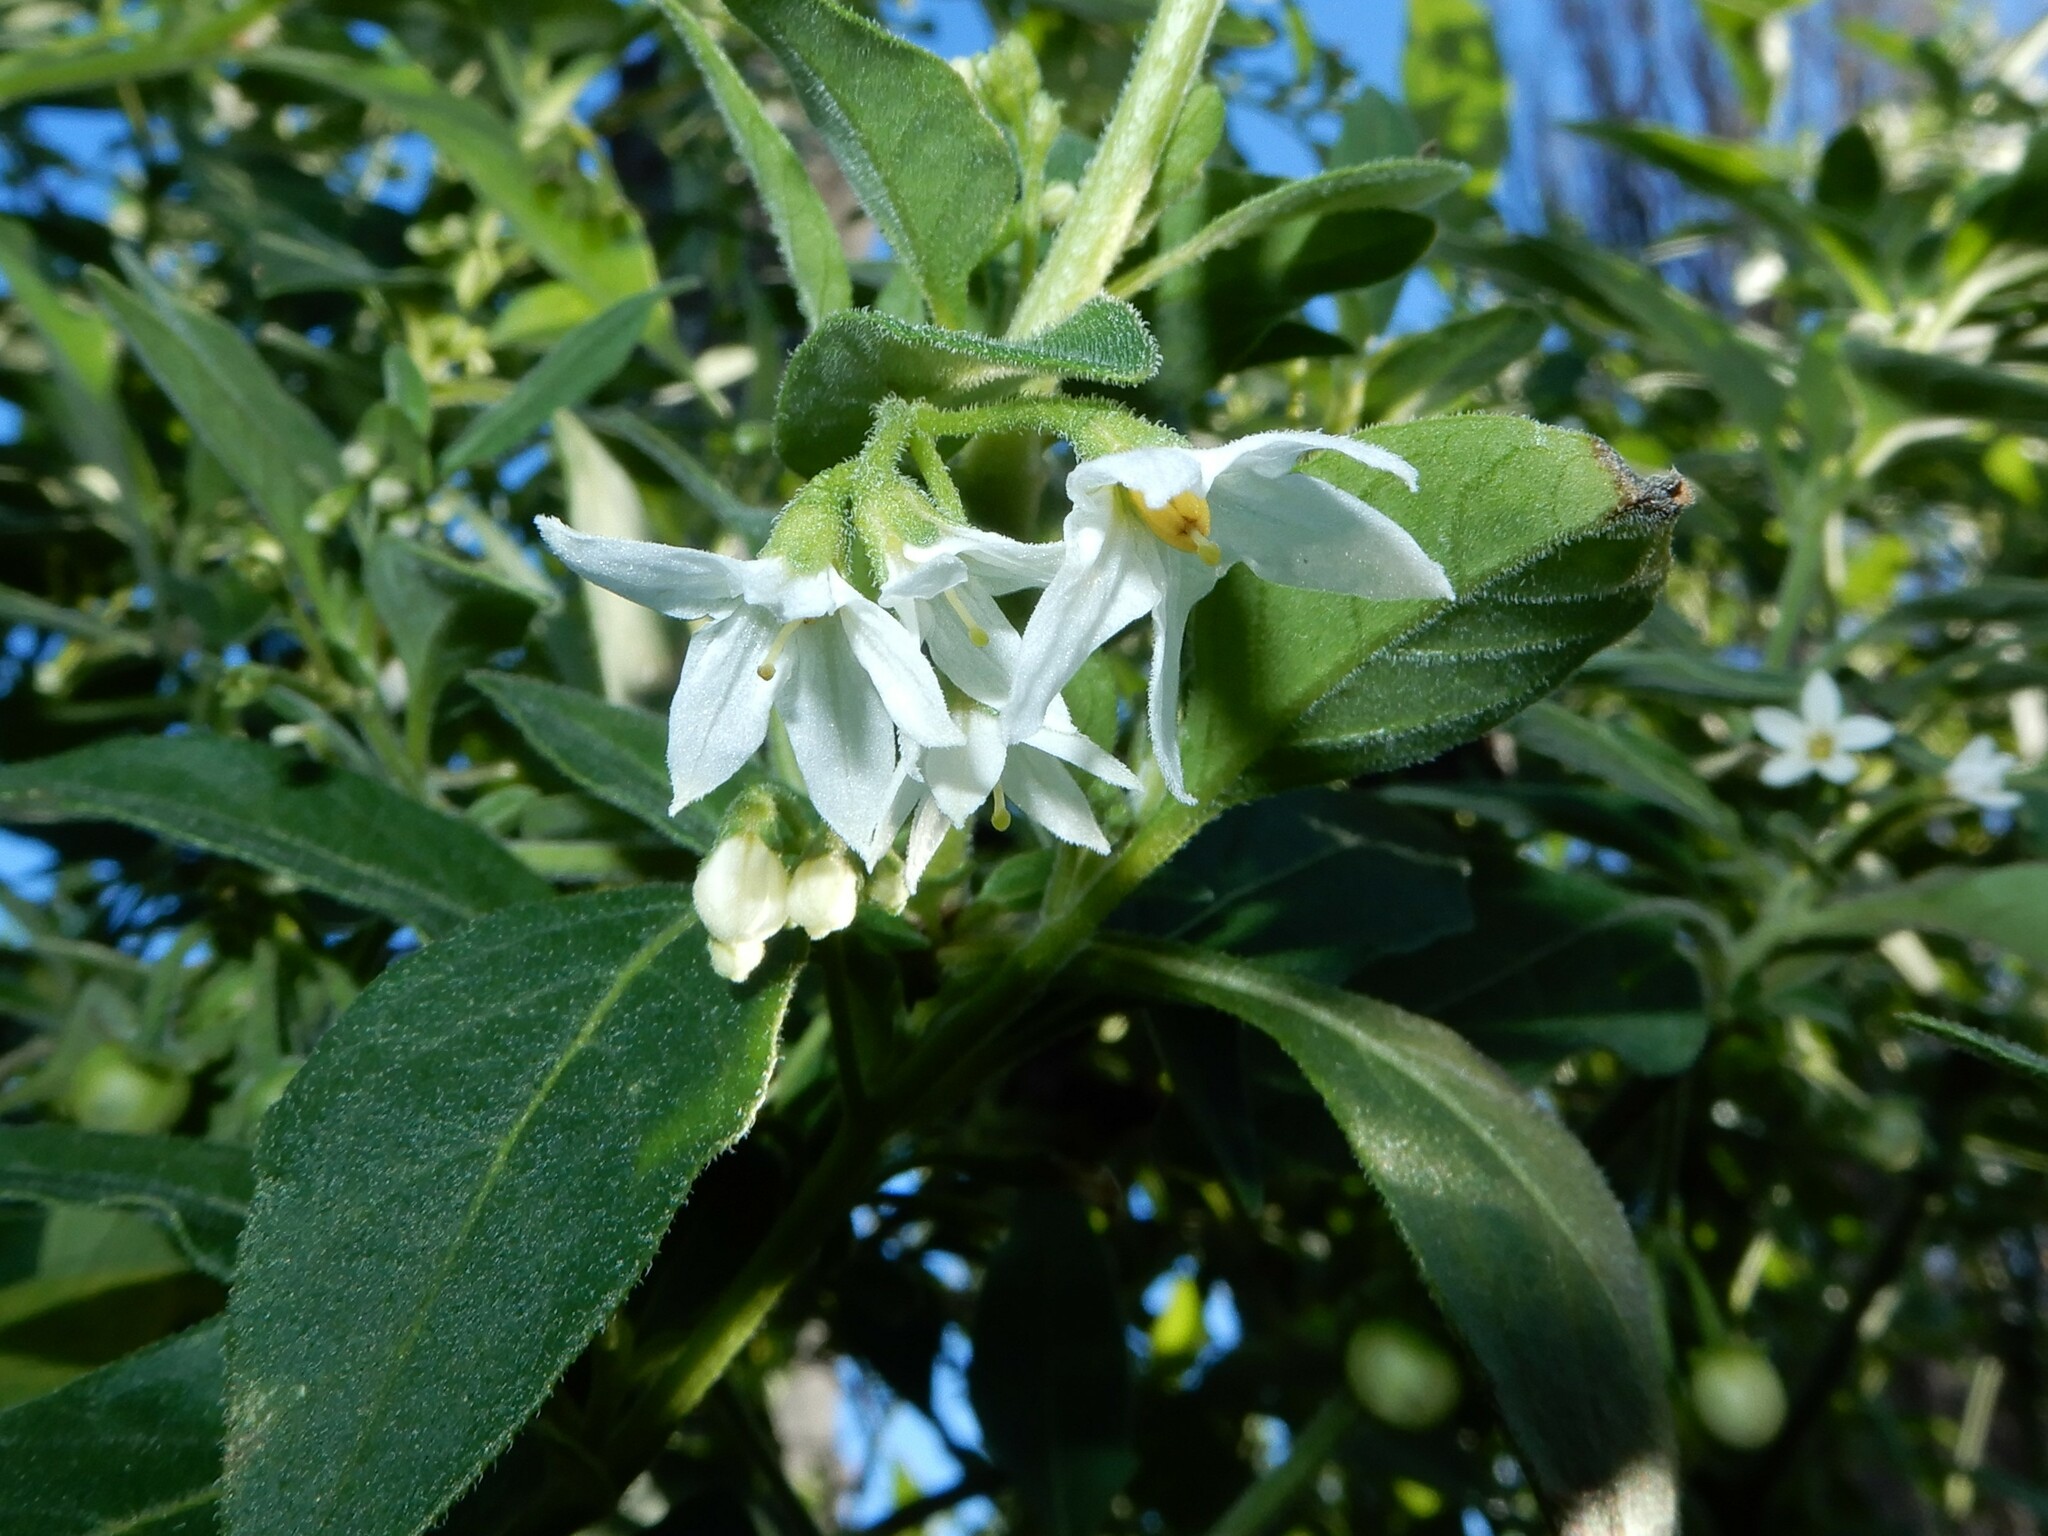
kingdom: Plantae
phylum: Tracheophyta
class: Magnoliopsida
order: Solanales
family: Solanaceae
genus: Solanum
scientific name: Solanum chenopodioides
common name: Tall nightshade
